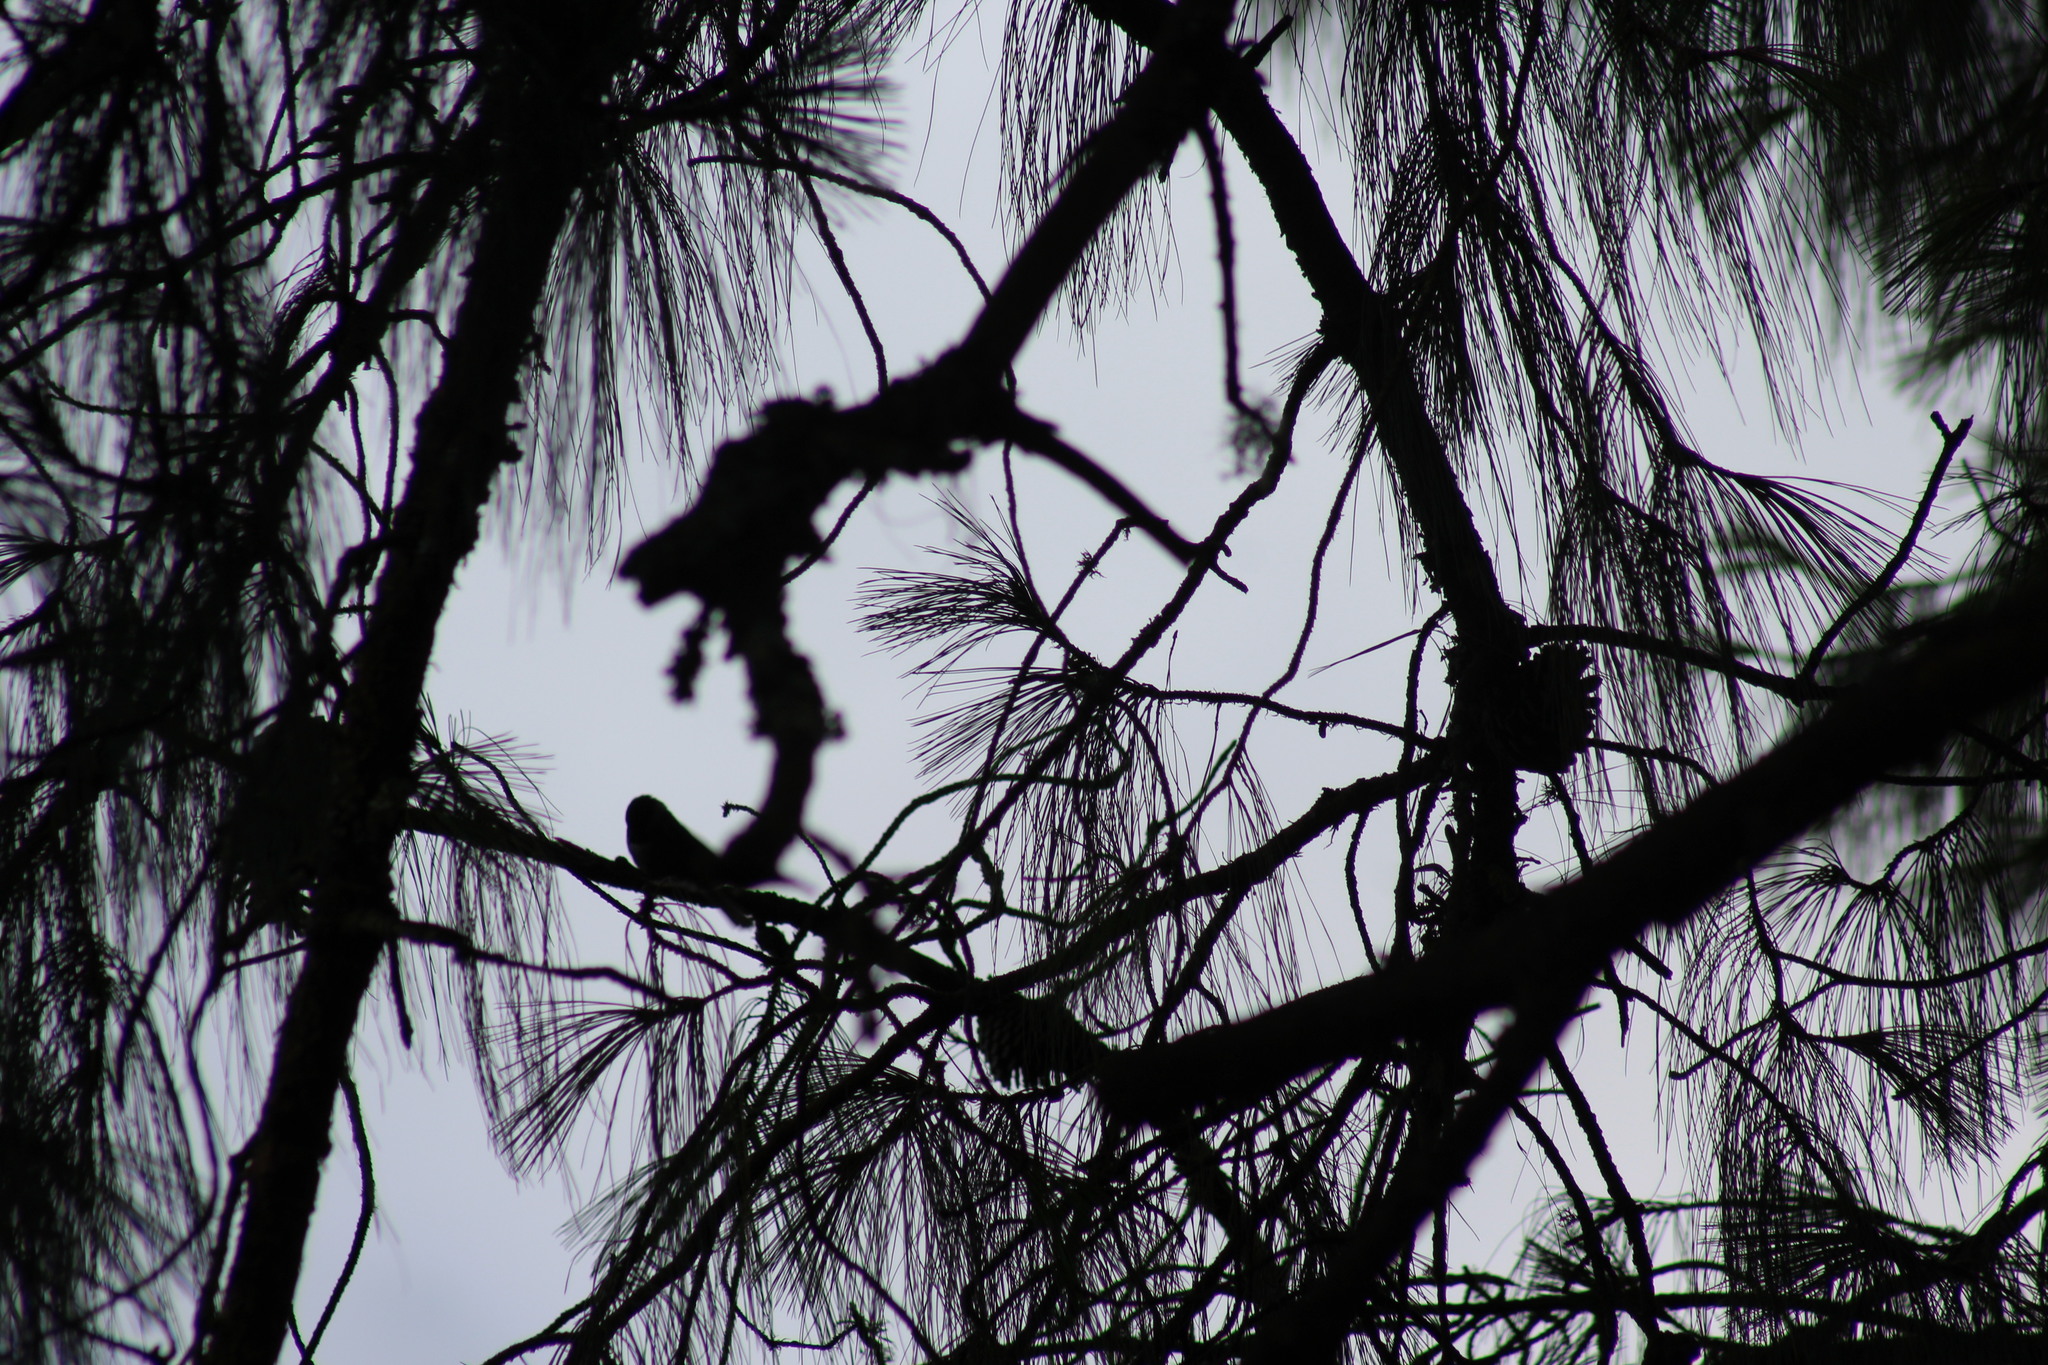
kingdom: Animalia
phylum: Chordata
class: Aves
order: Passeriformes
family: Paridae
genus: Poecile
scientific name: Poecile sclateri
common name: Mexican chickadee
